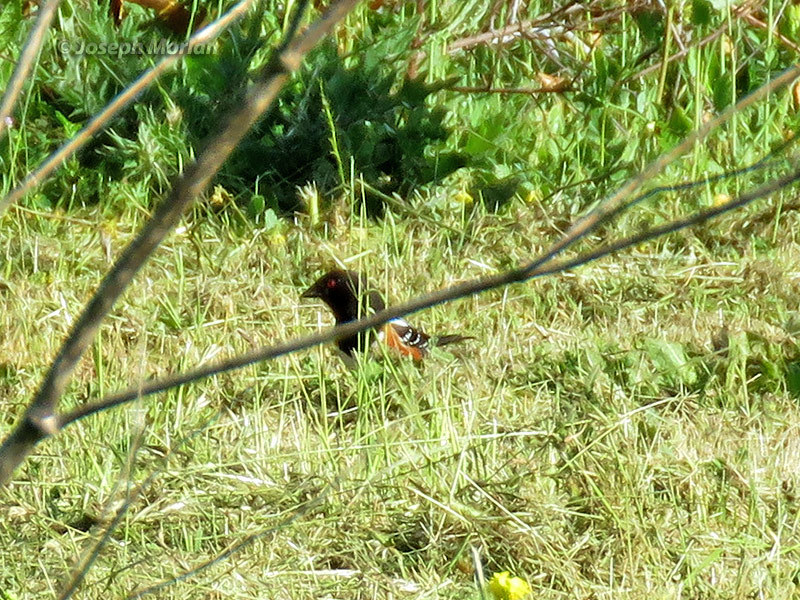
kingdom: Animalia
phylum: Chordata
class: Aves
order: Passeriformes
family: Passerellidae
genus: Pipilo
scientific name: Pipilo maculatus
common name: Spotted towhee
